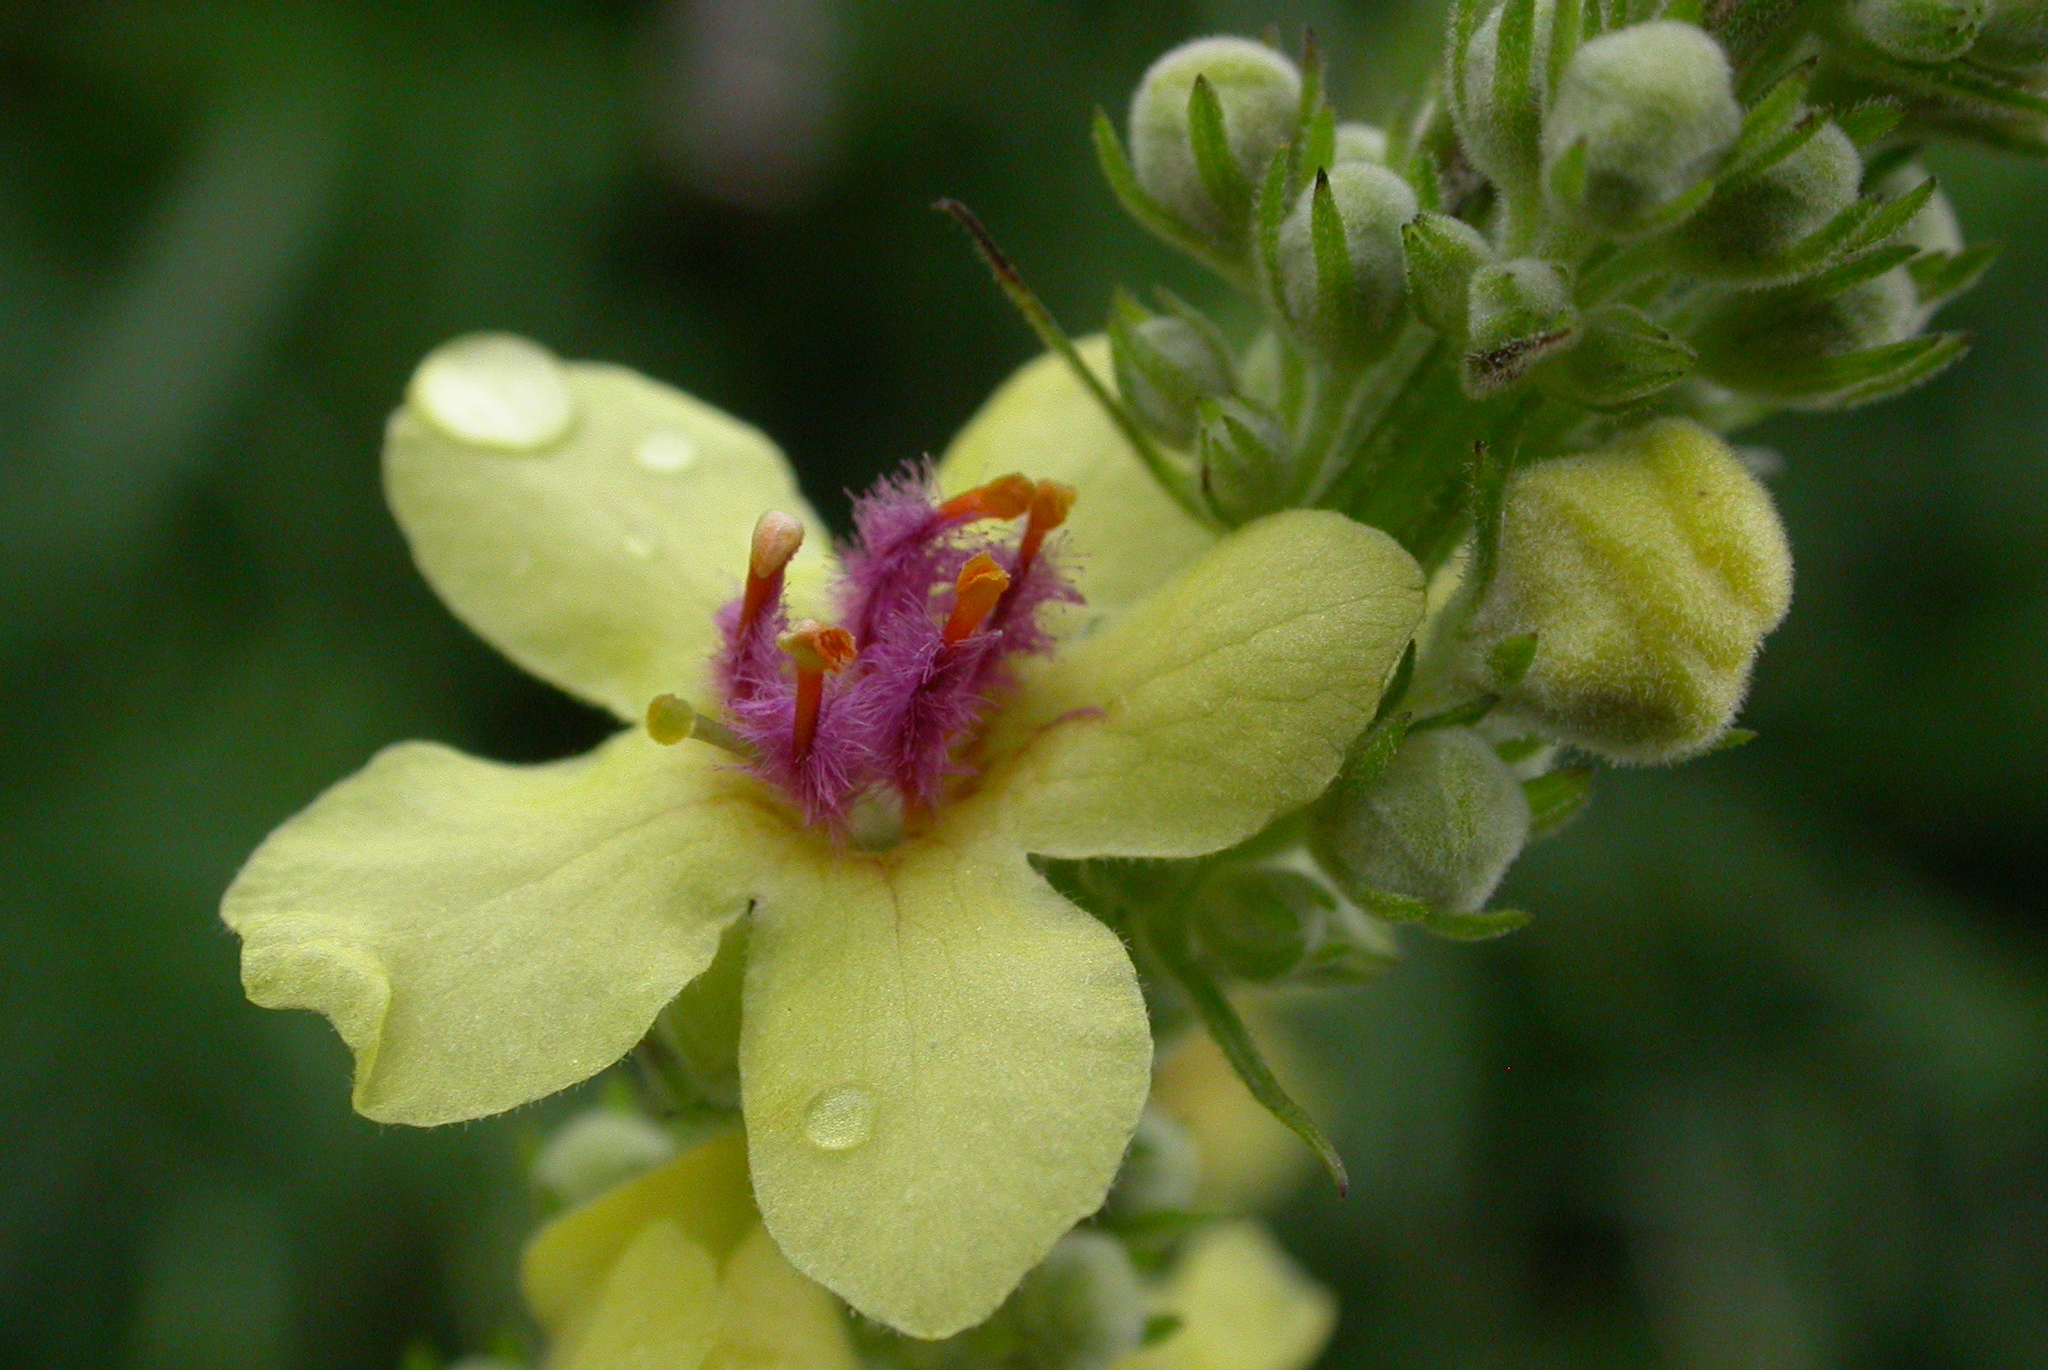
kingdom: Plantae
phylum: Tracheophyta
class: Magnoliopsida
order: Lamiales
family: Scrophulariaceae
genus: Verbascum
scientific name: Verbascum nigrum
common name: Dark mullein
